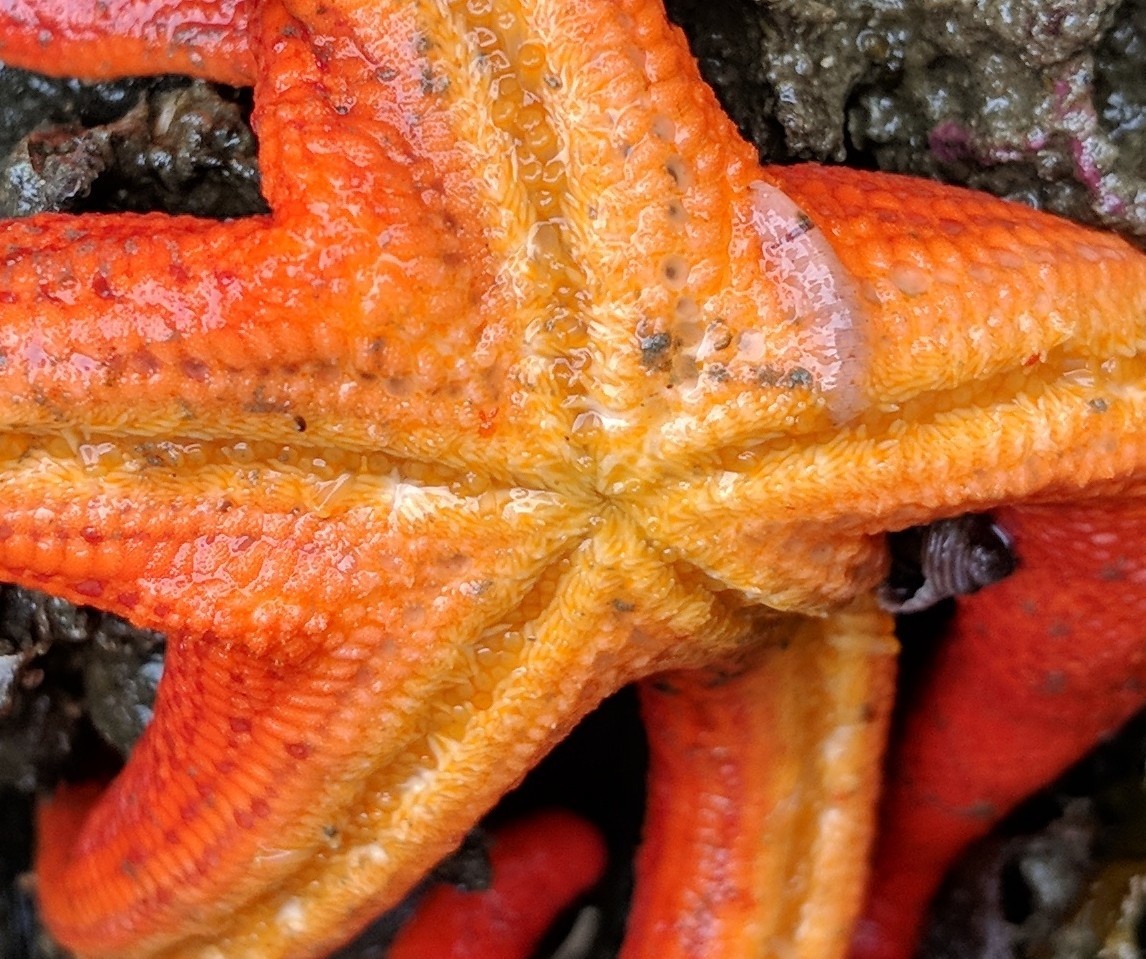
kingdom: Animalia
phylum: Annelida
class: Polychaeta
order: Phyllodocida
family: Polynoidae
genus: Arctonoe
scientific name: Arctonoe vittata
